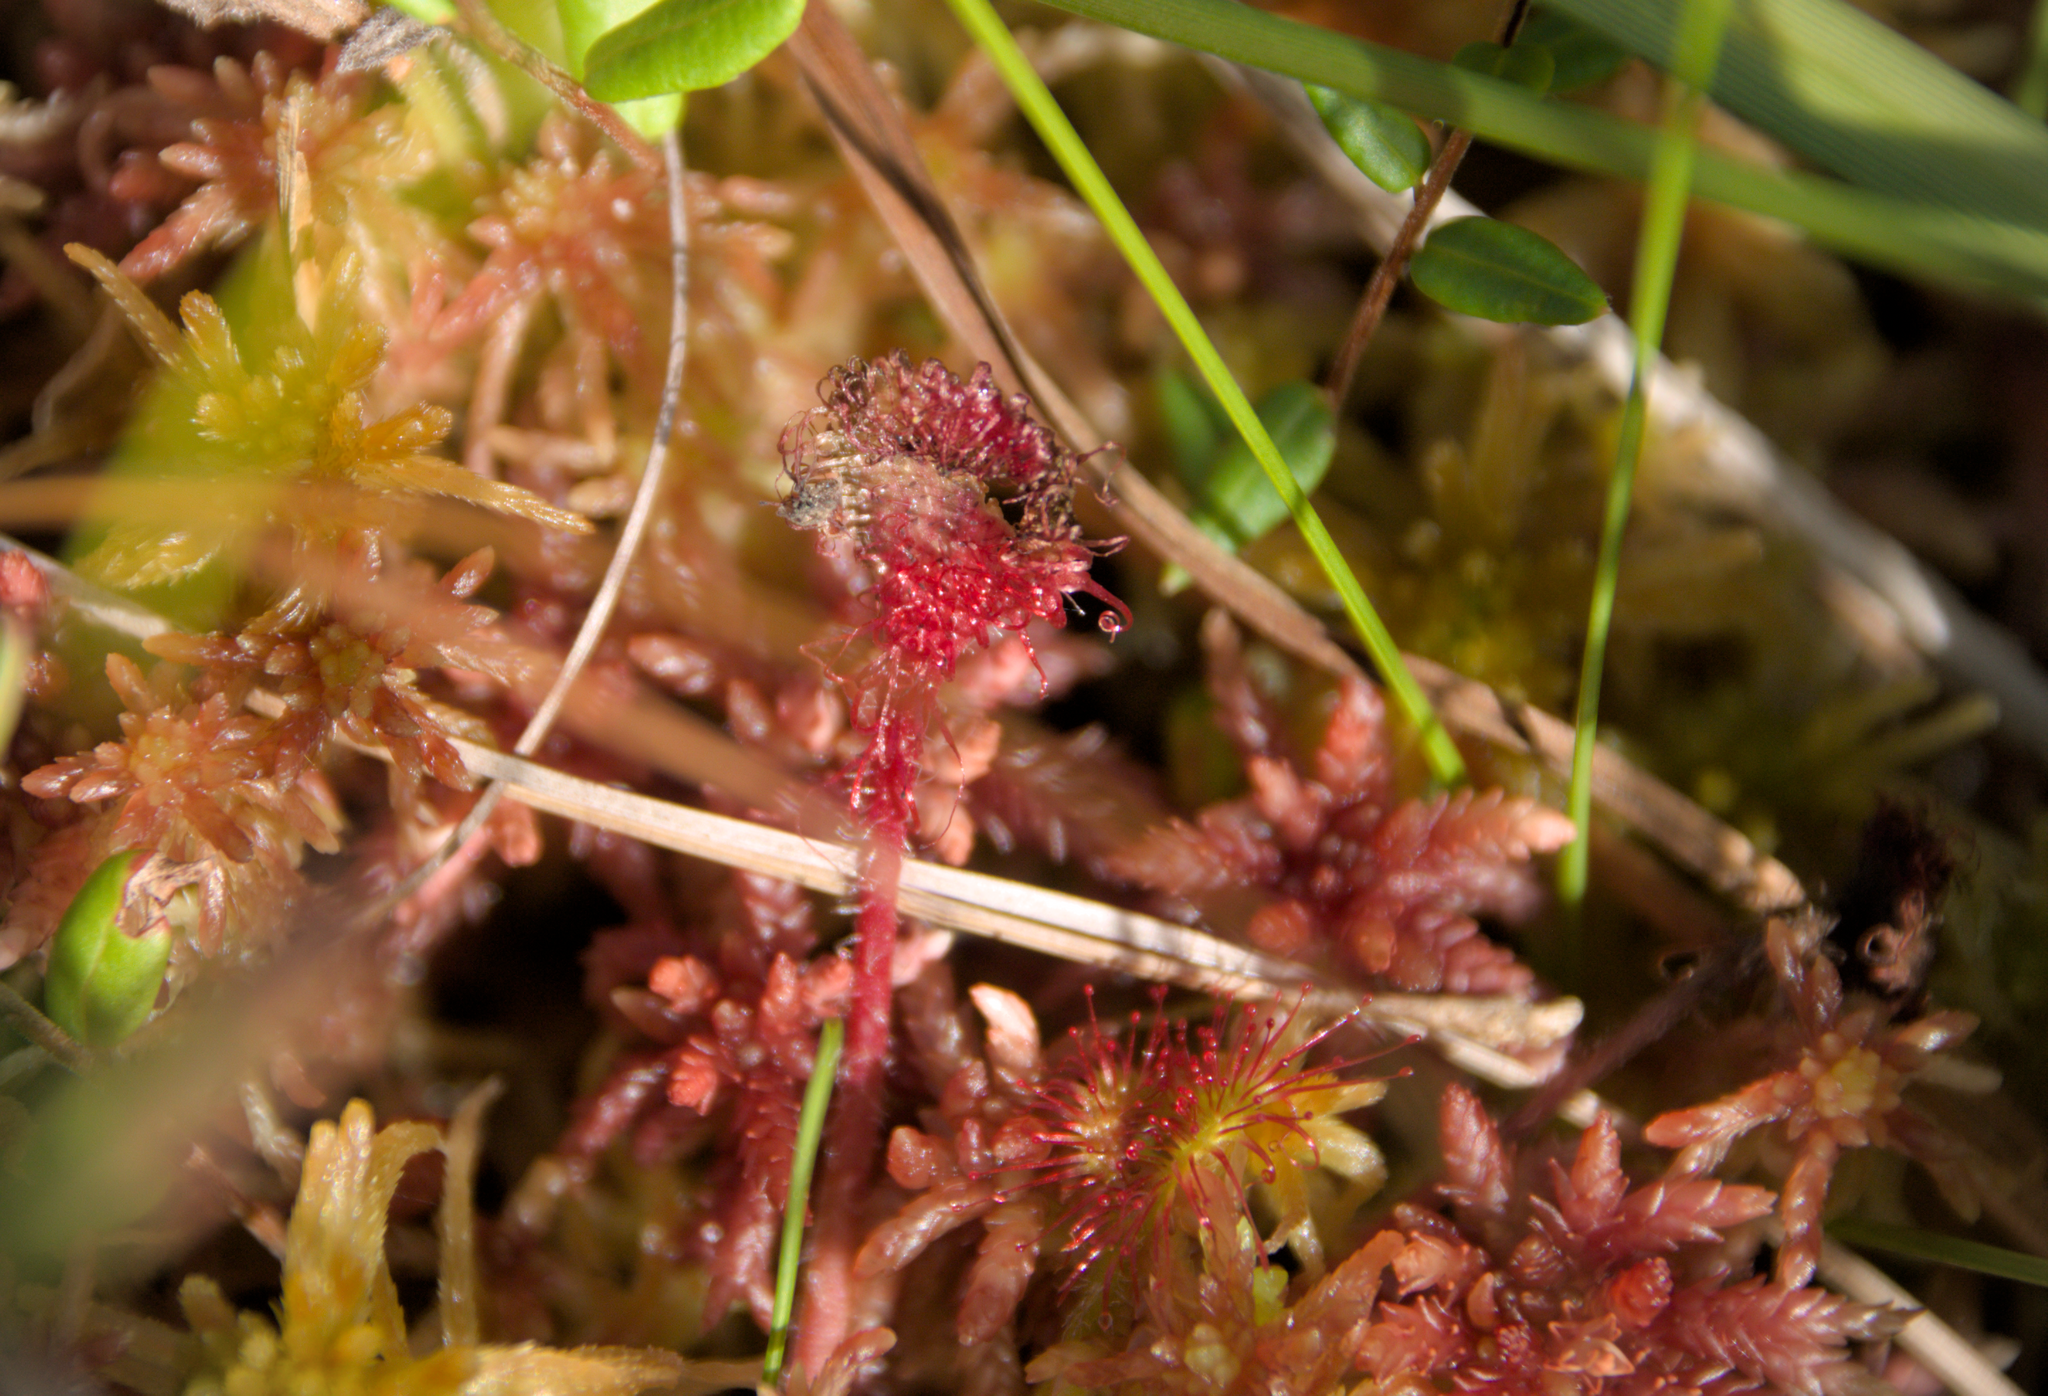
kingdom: Plantae
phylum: Tracheophyta
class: Magnoliopsida
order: Caryophyllales
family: Droseraceae
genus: Drosera
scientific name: Drosera rotundifolia
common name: Round-leaved sundew
